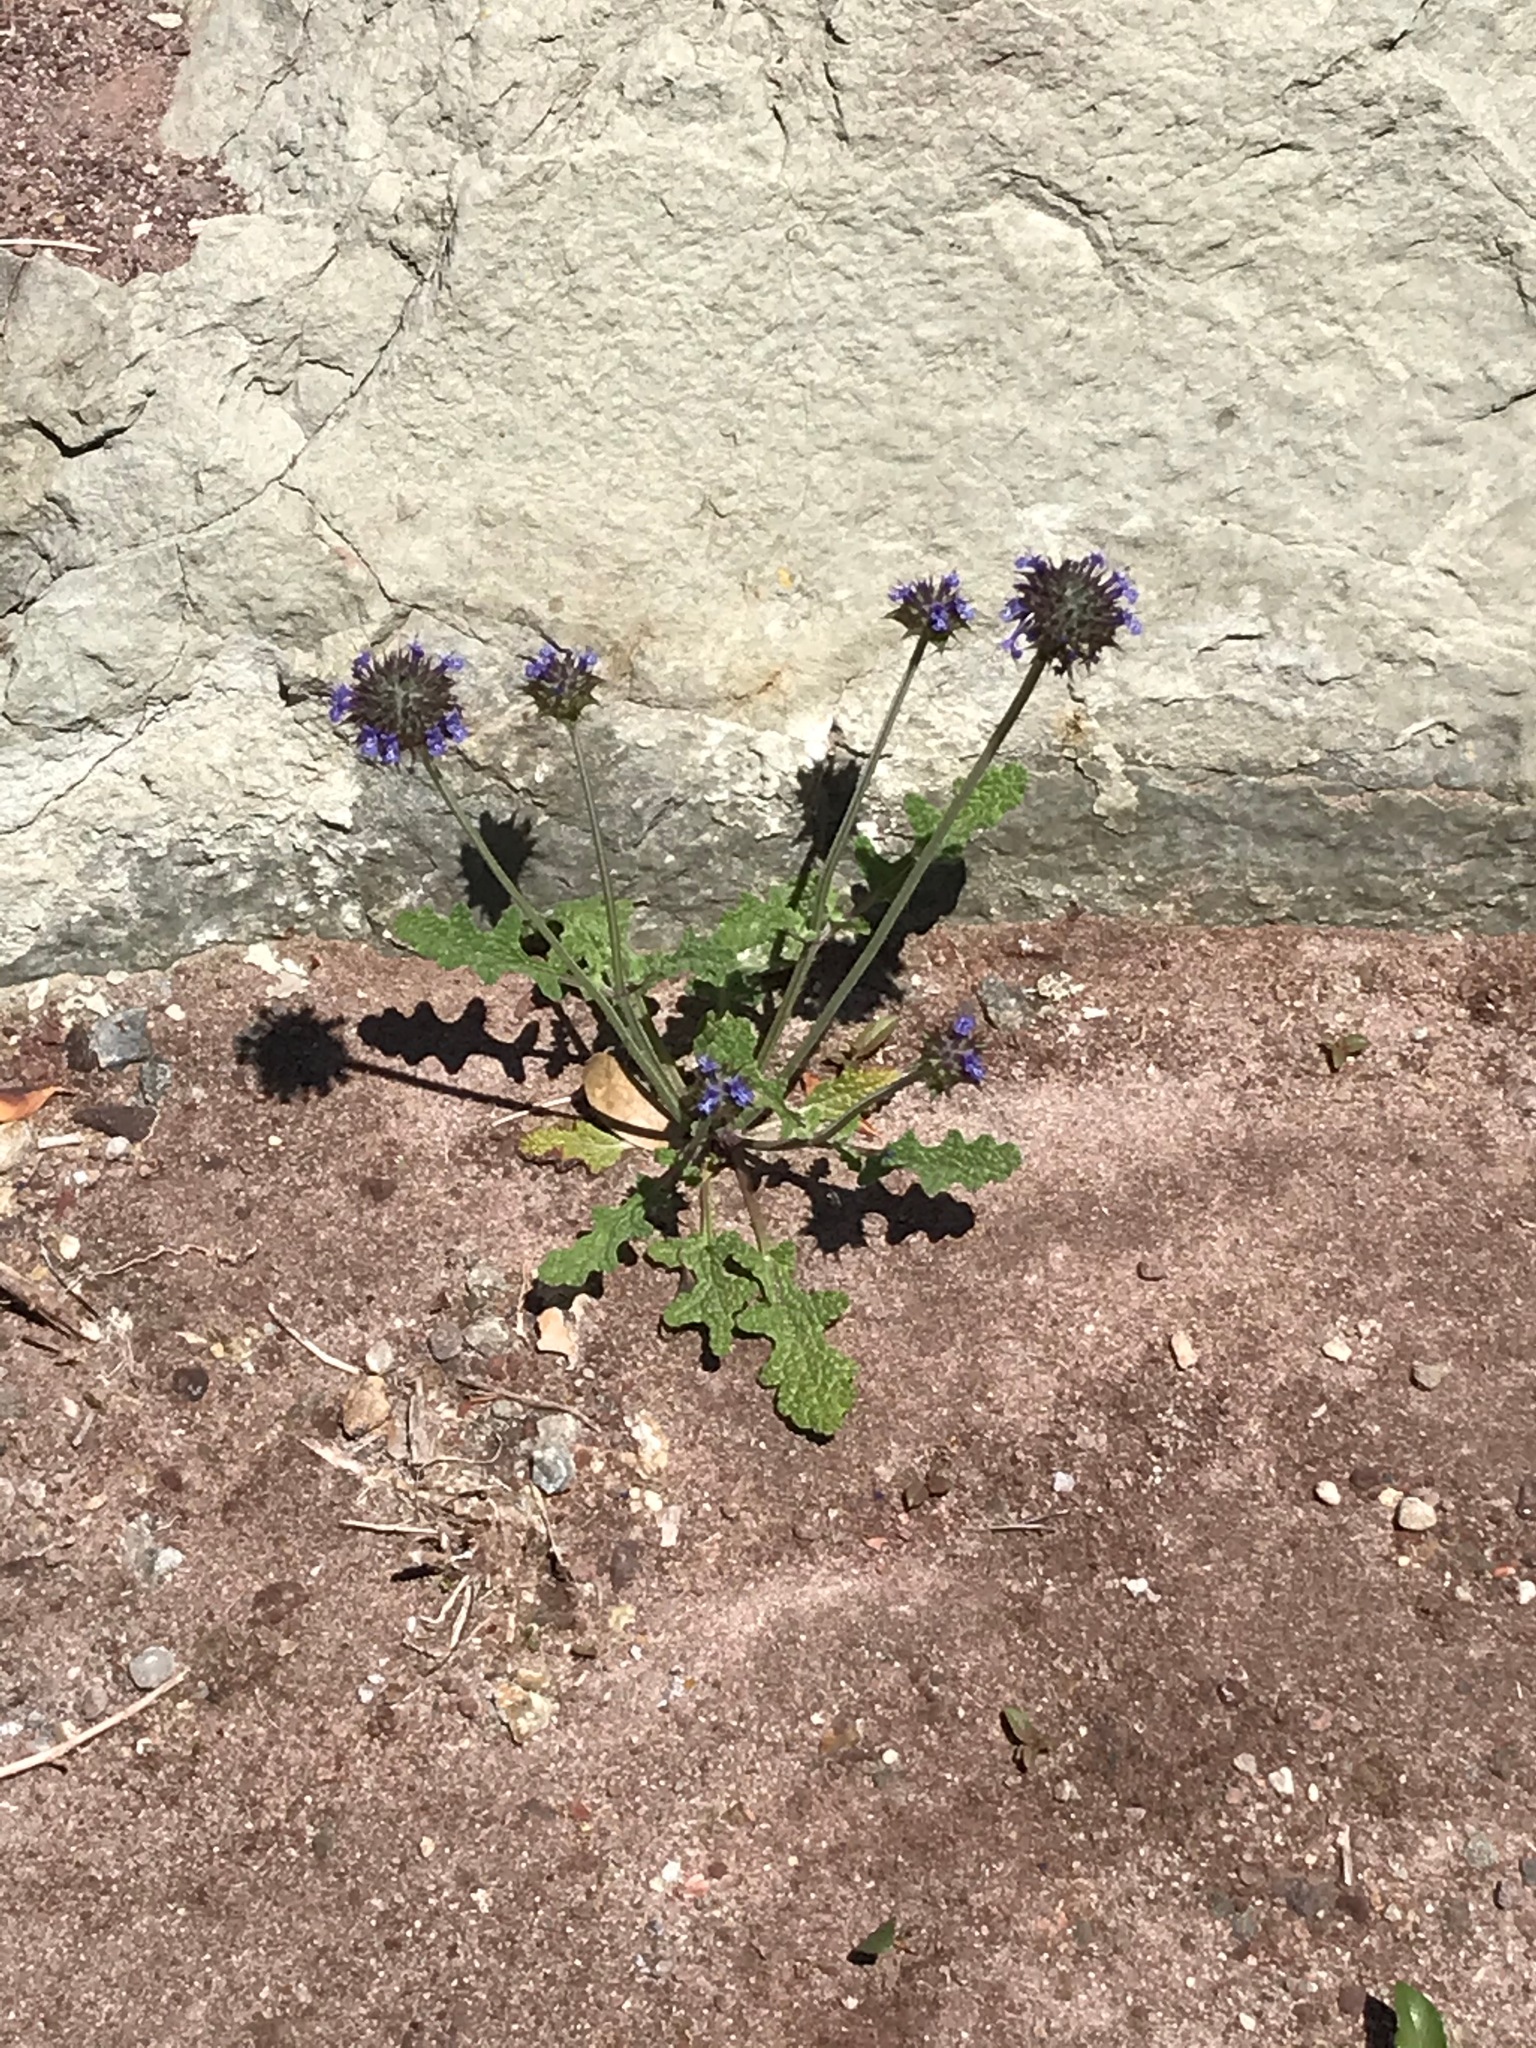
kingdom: Plantae
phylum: Tracheophyta
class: Magnoliopsida
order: Lamiales
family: Lamiaceae
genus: Salvia
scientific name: Salvia columbariae
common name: Chia
